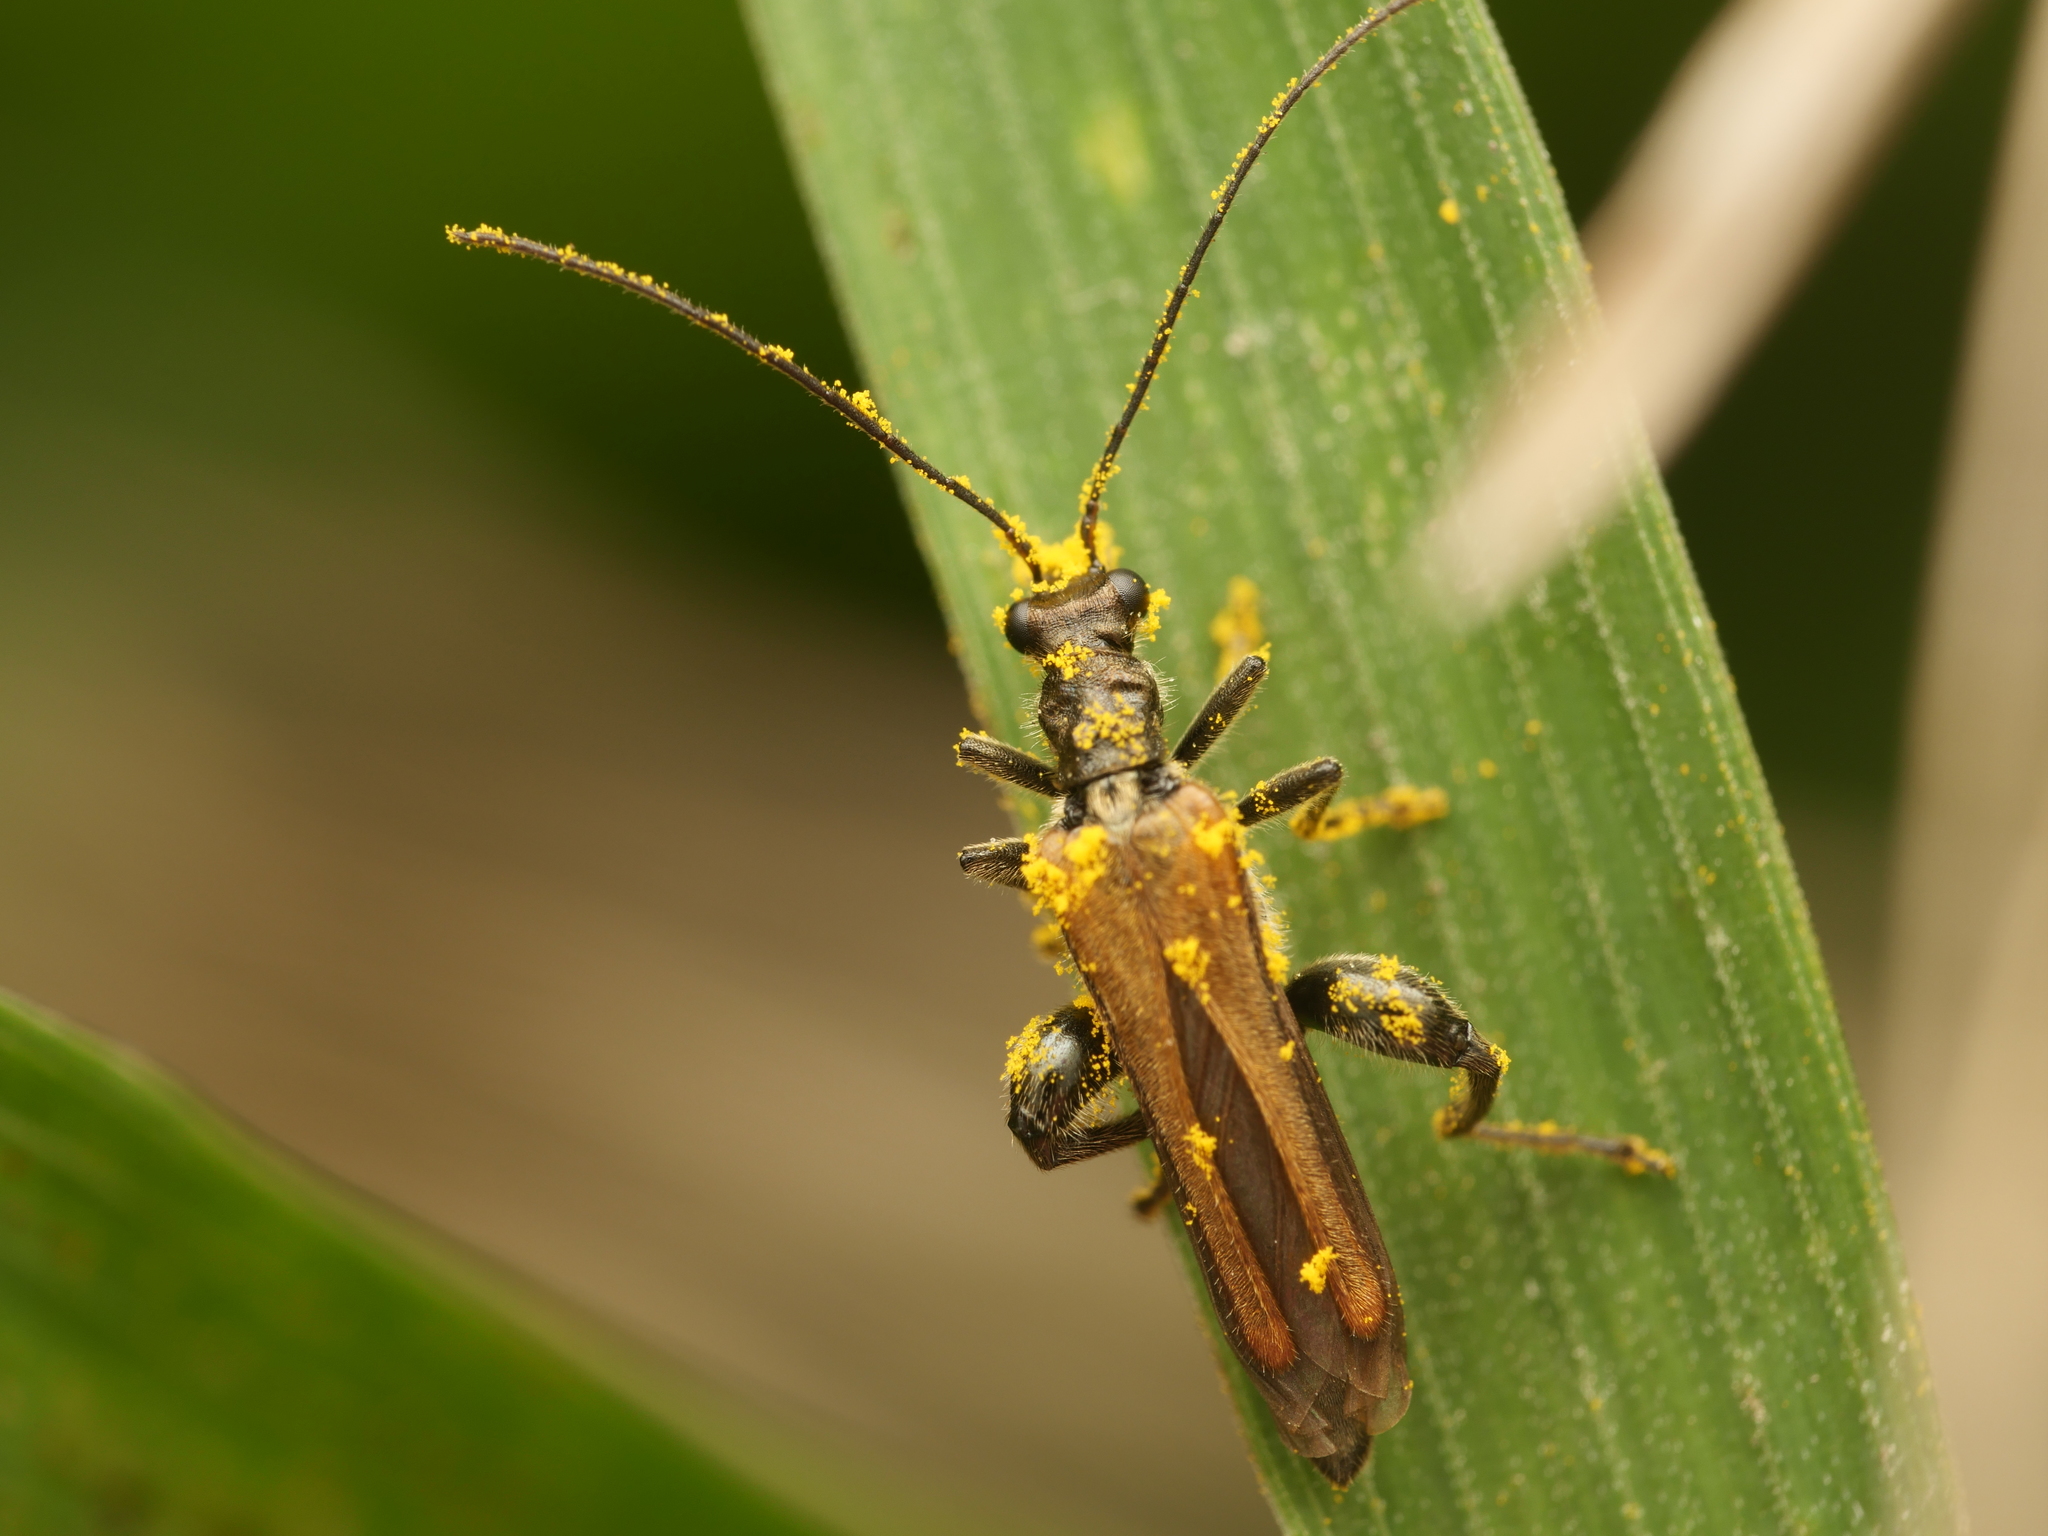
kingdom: Animalia
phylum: Arthropoda
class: Insecta
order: Coleoptera
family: Oedemeridae
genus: Oedemera
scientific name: Oedemera femorata
